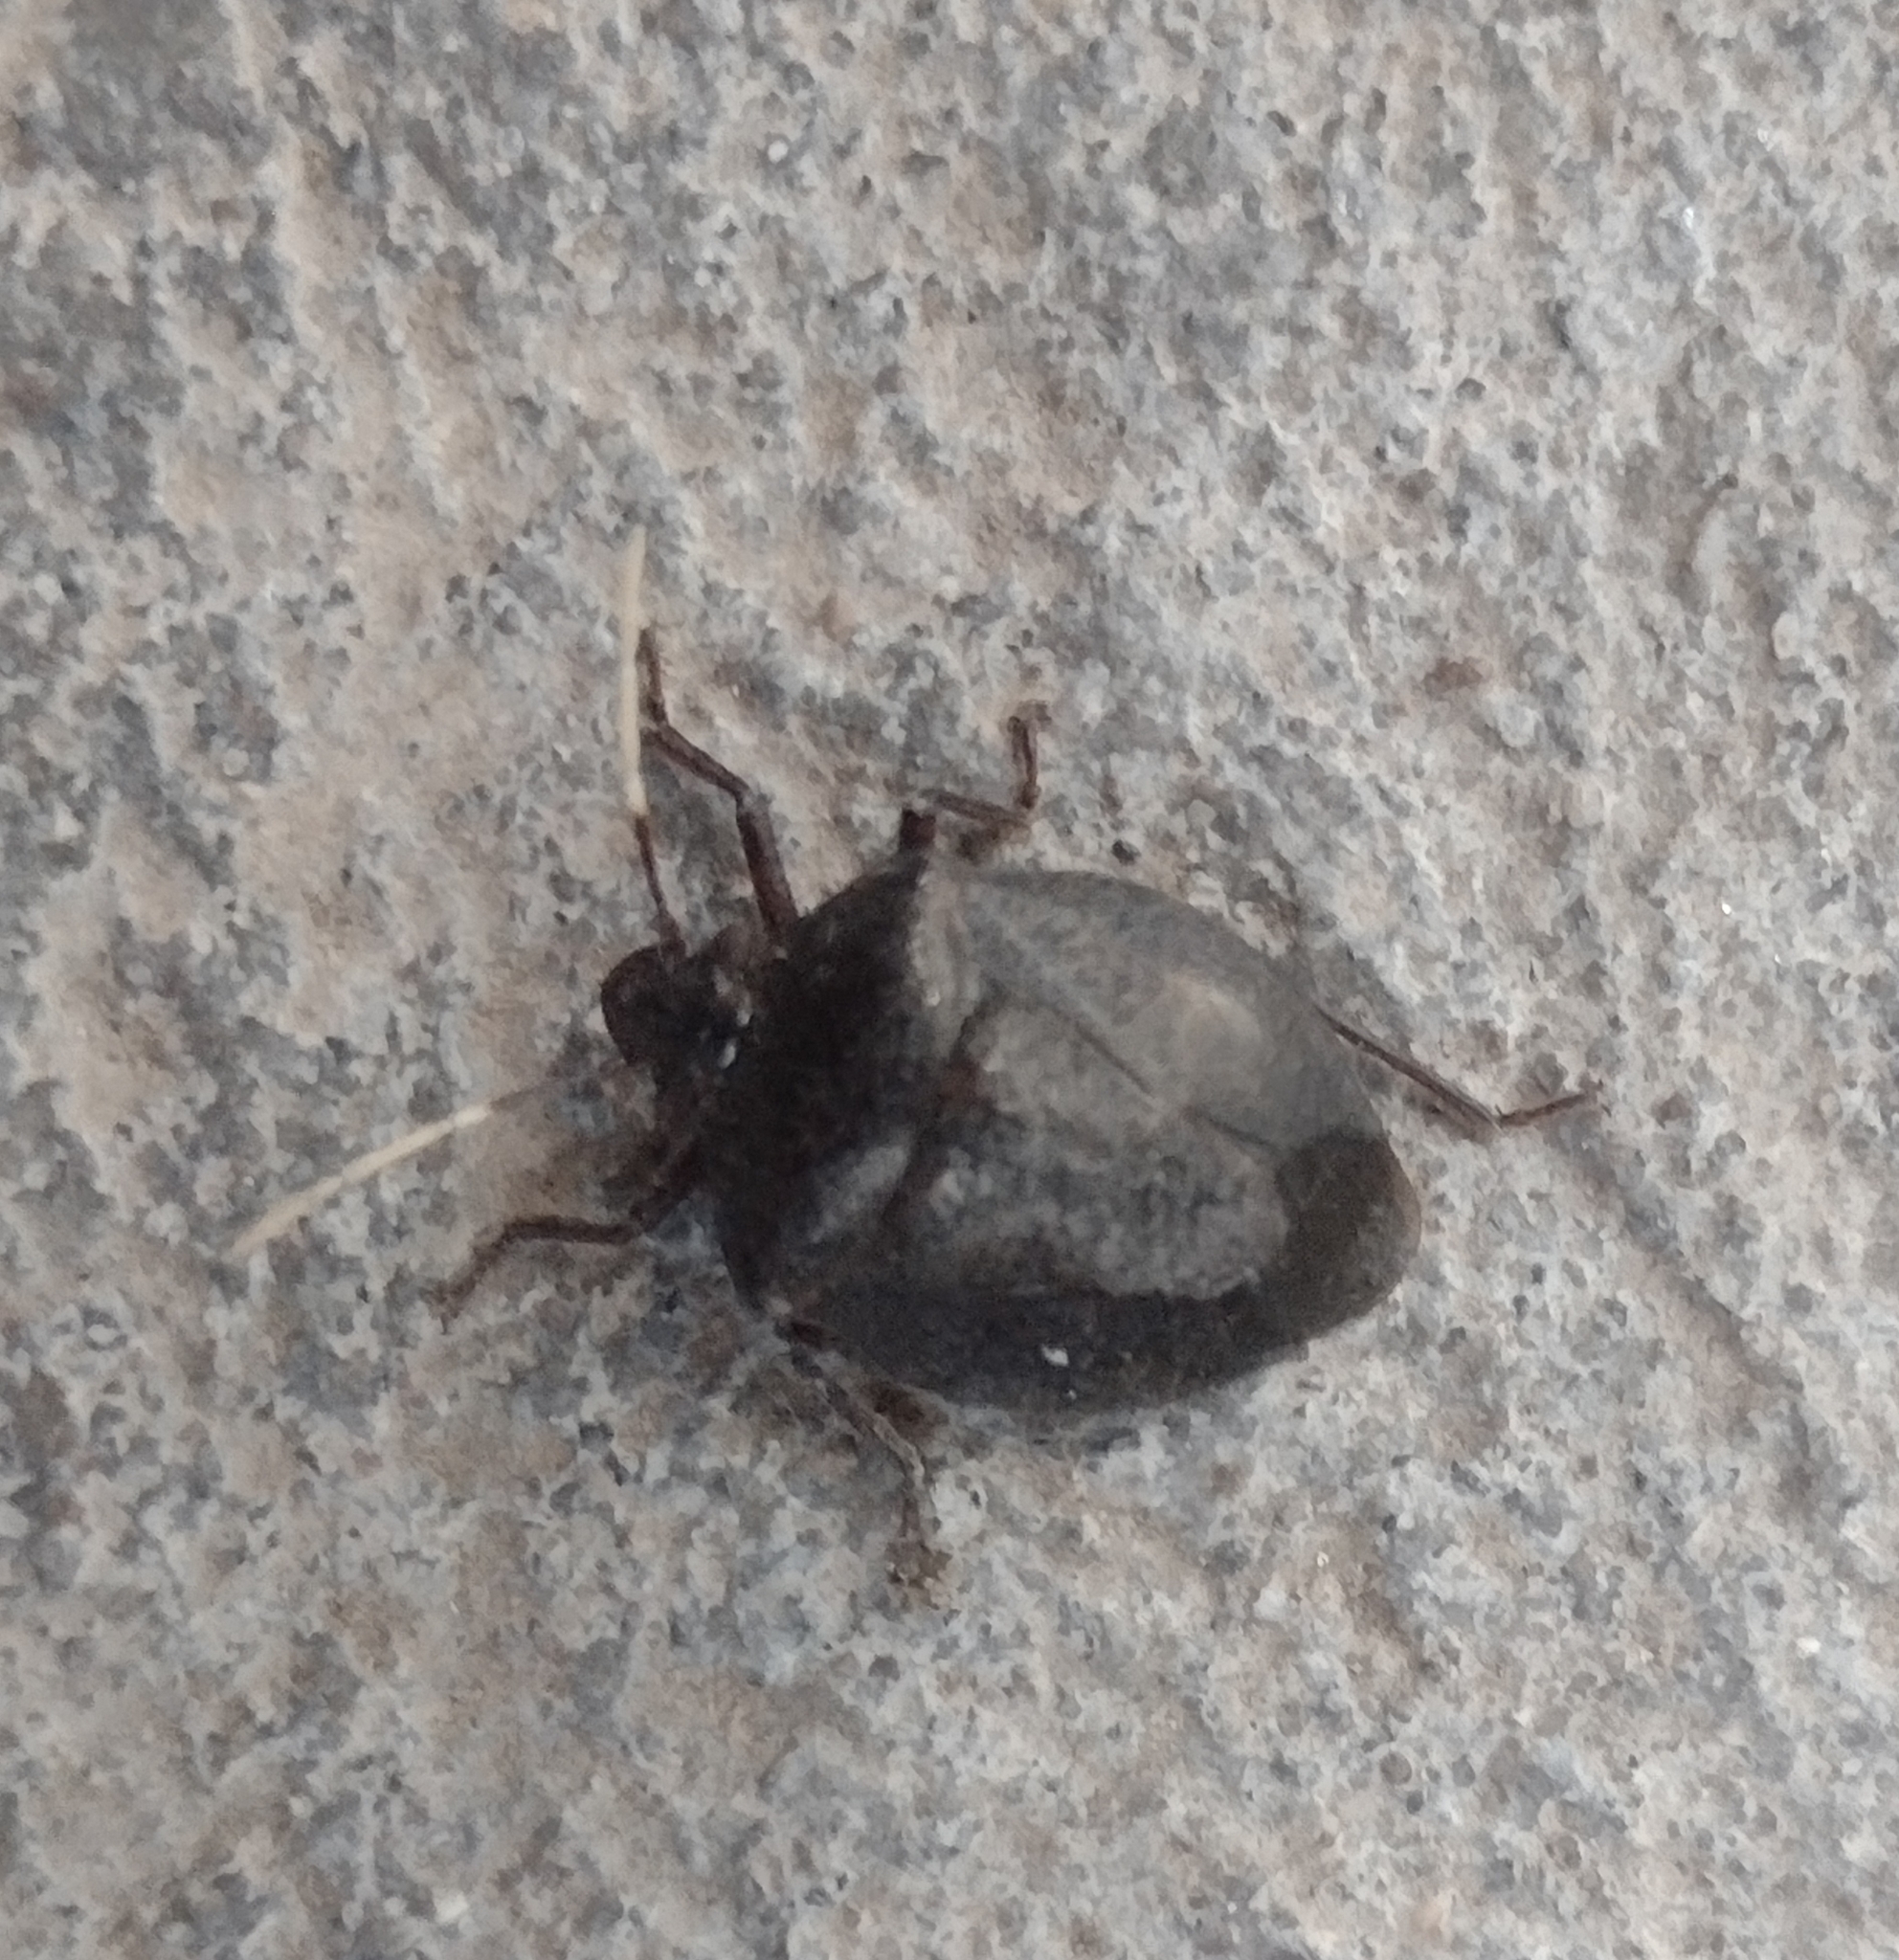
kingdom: Animalia
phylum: Arthropoda
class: Insecta
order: Hemiptera
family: Pentatomidae
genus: Antiteuchus
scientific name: Antiteuchus mixtus
